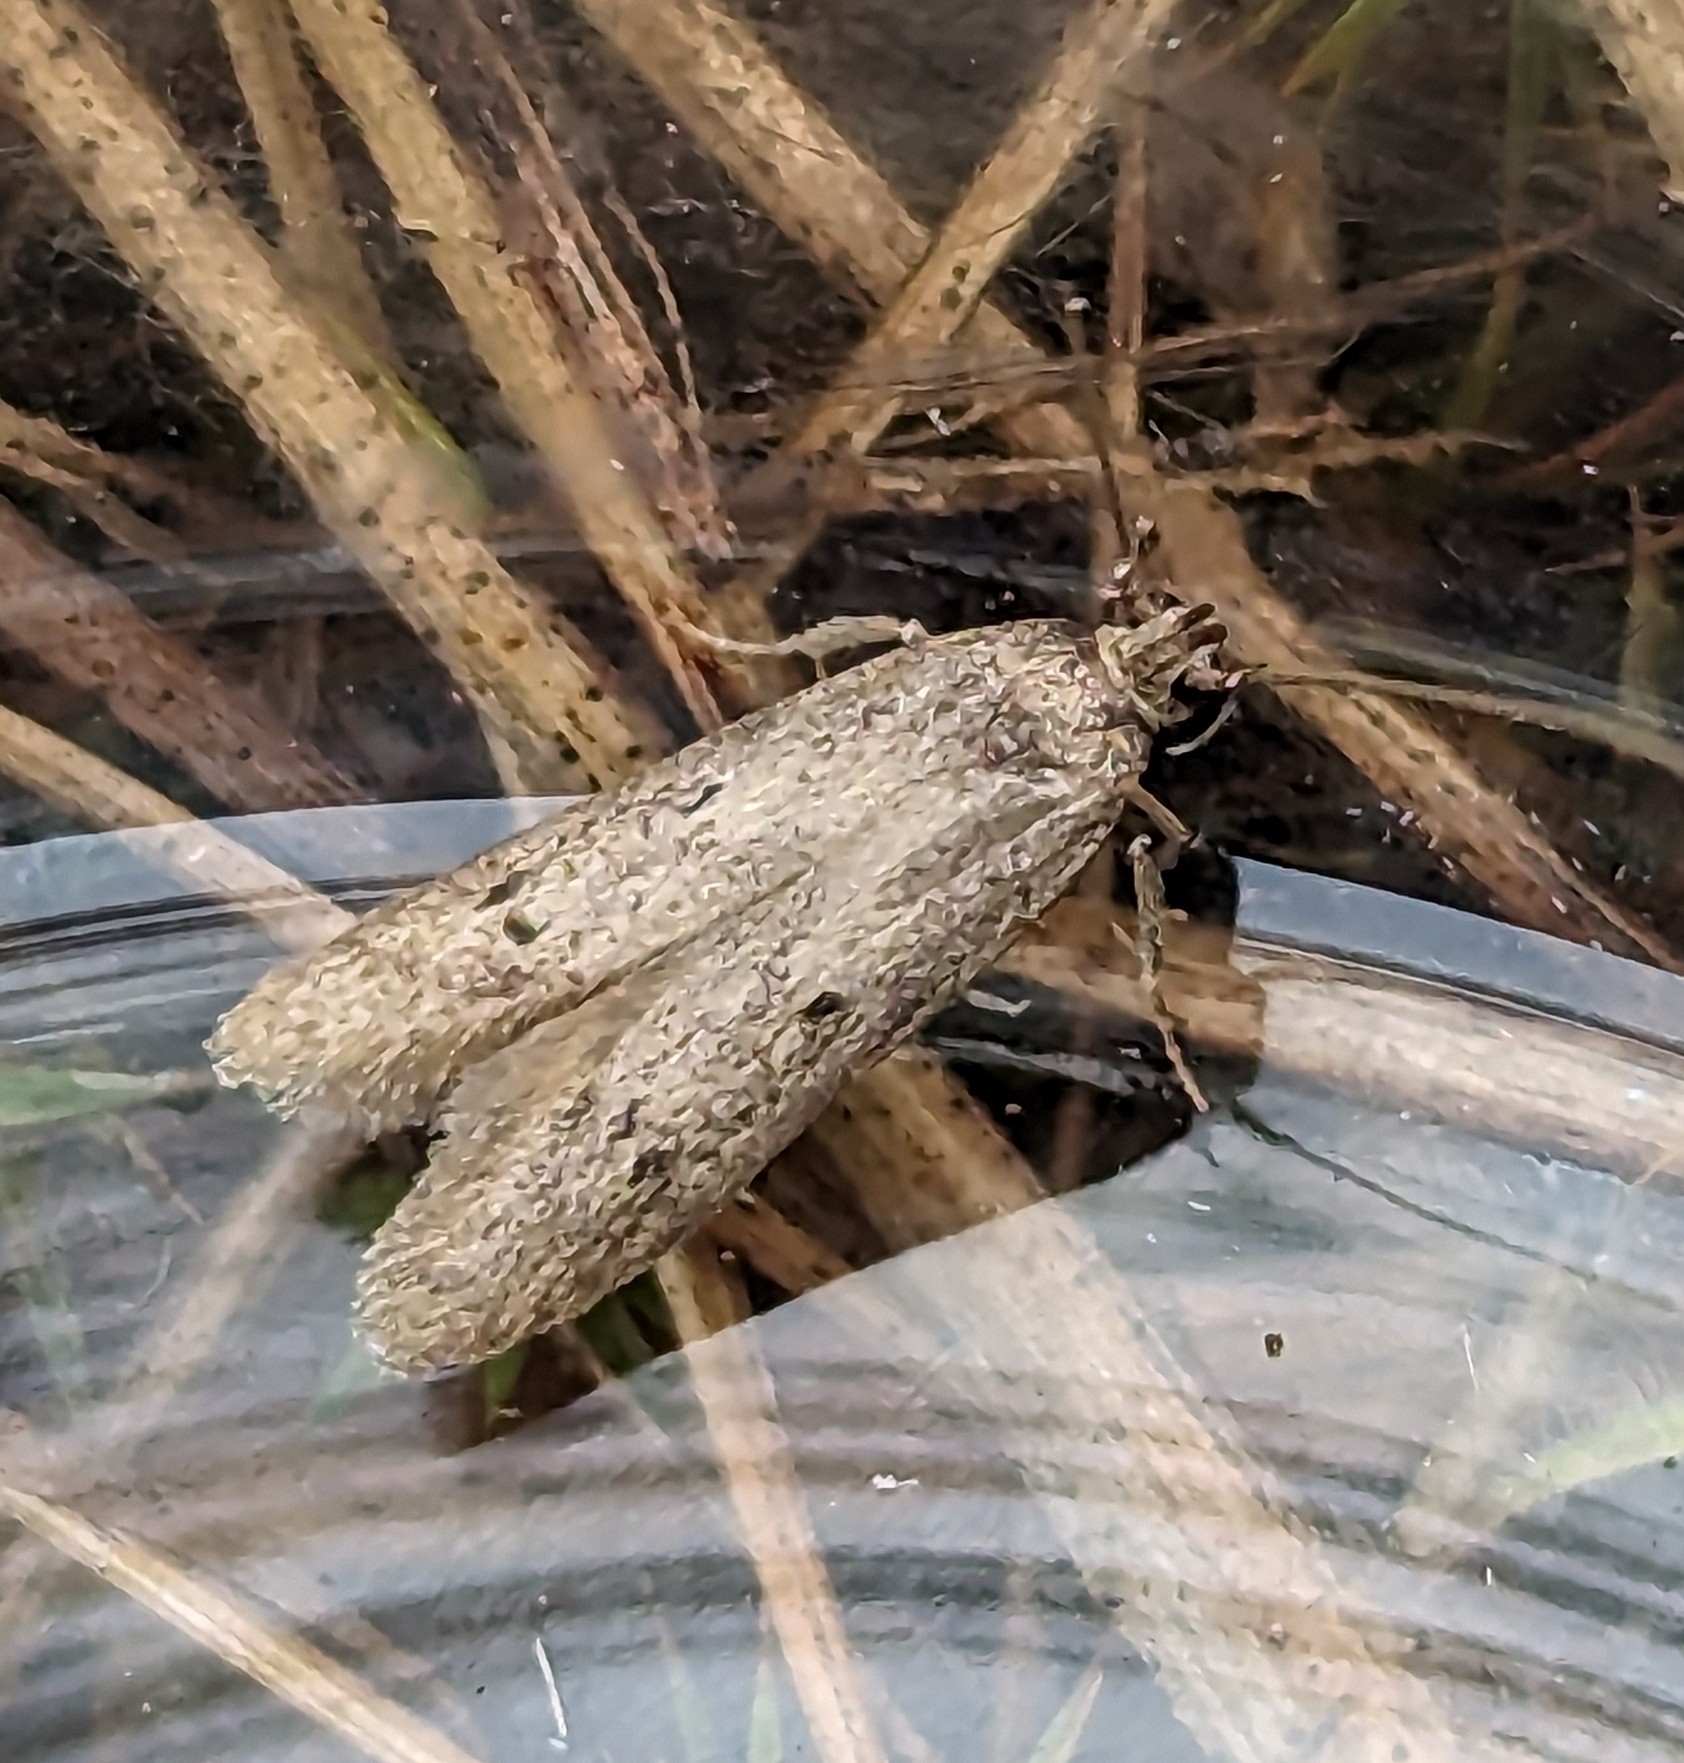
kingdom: Animalia
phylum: Arthropoda
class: Insecta
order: Lepidoptera
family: Blastobasidae
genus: Holcocera
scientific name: Holcocera chalcofrontella
